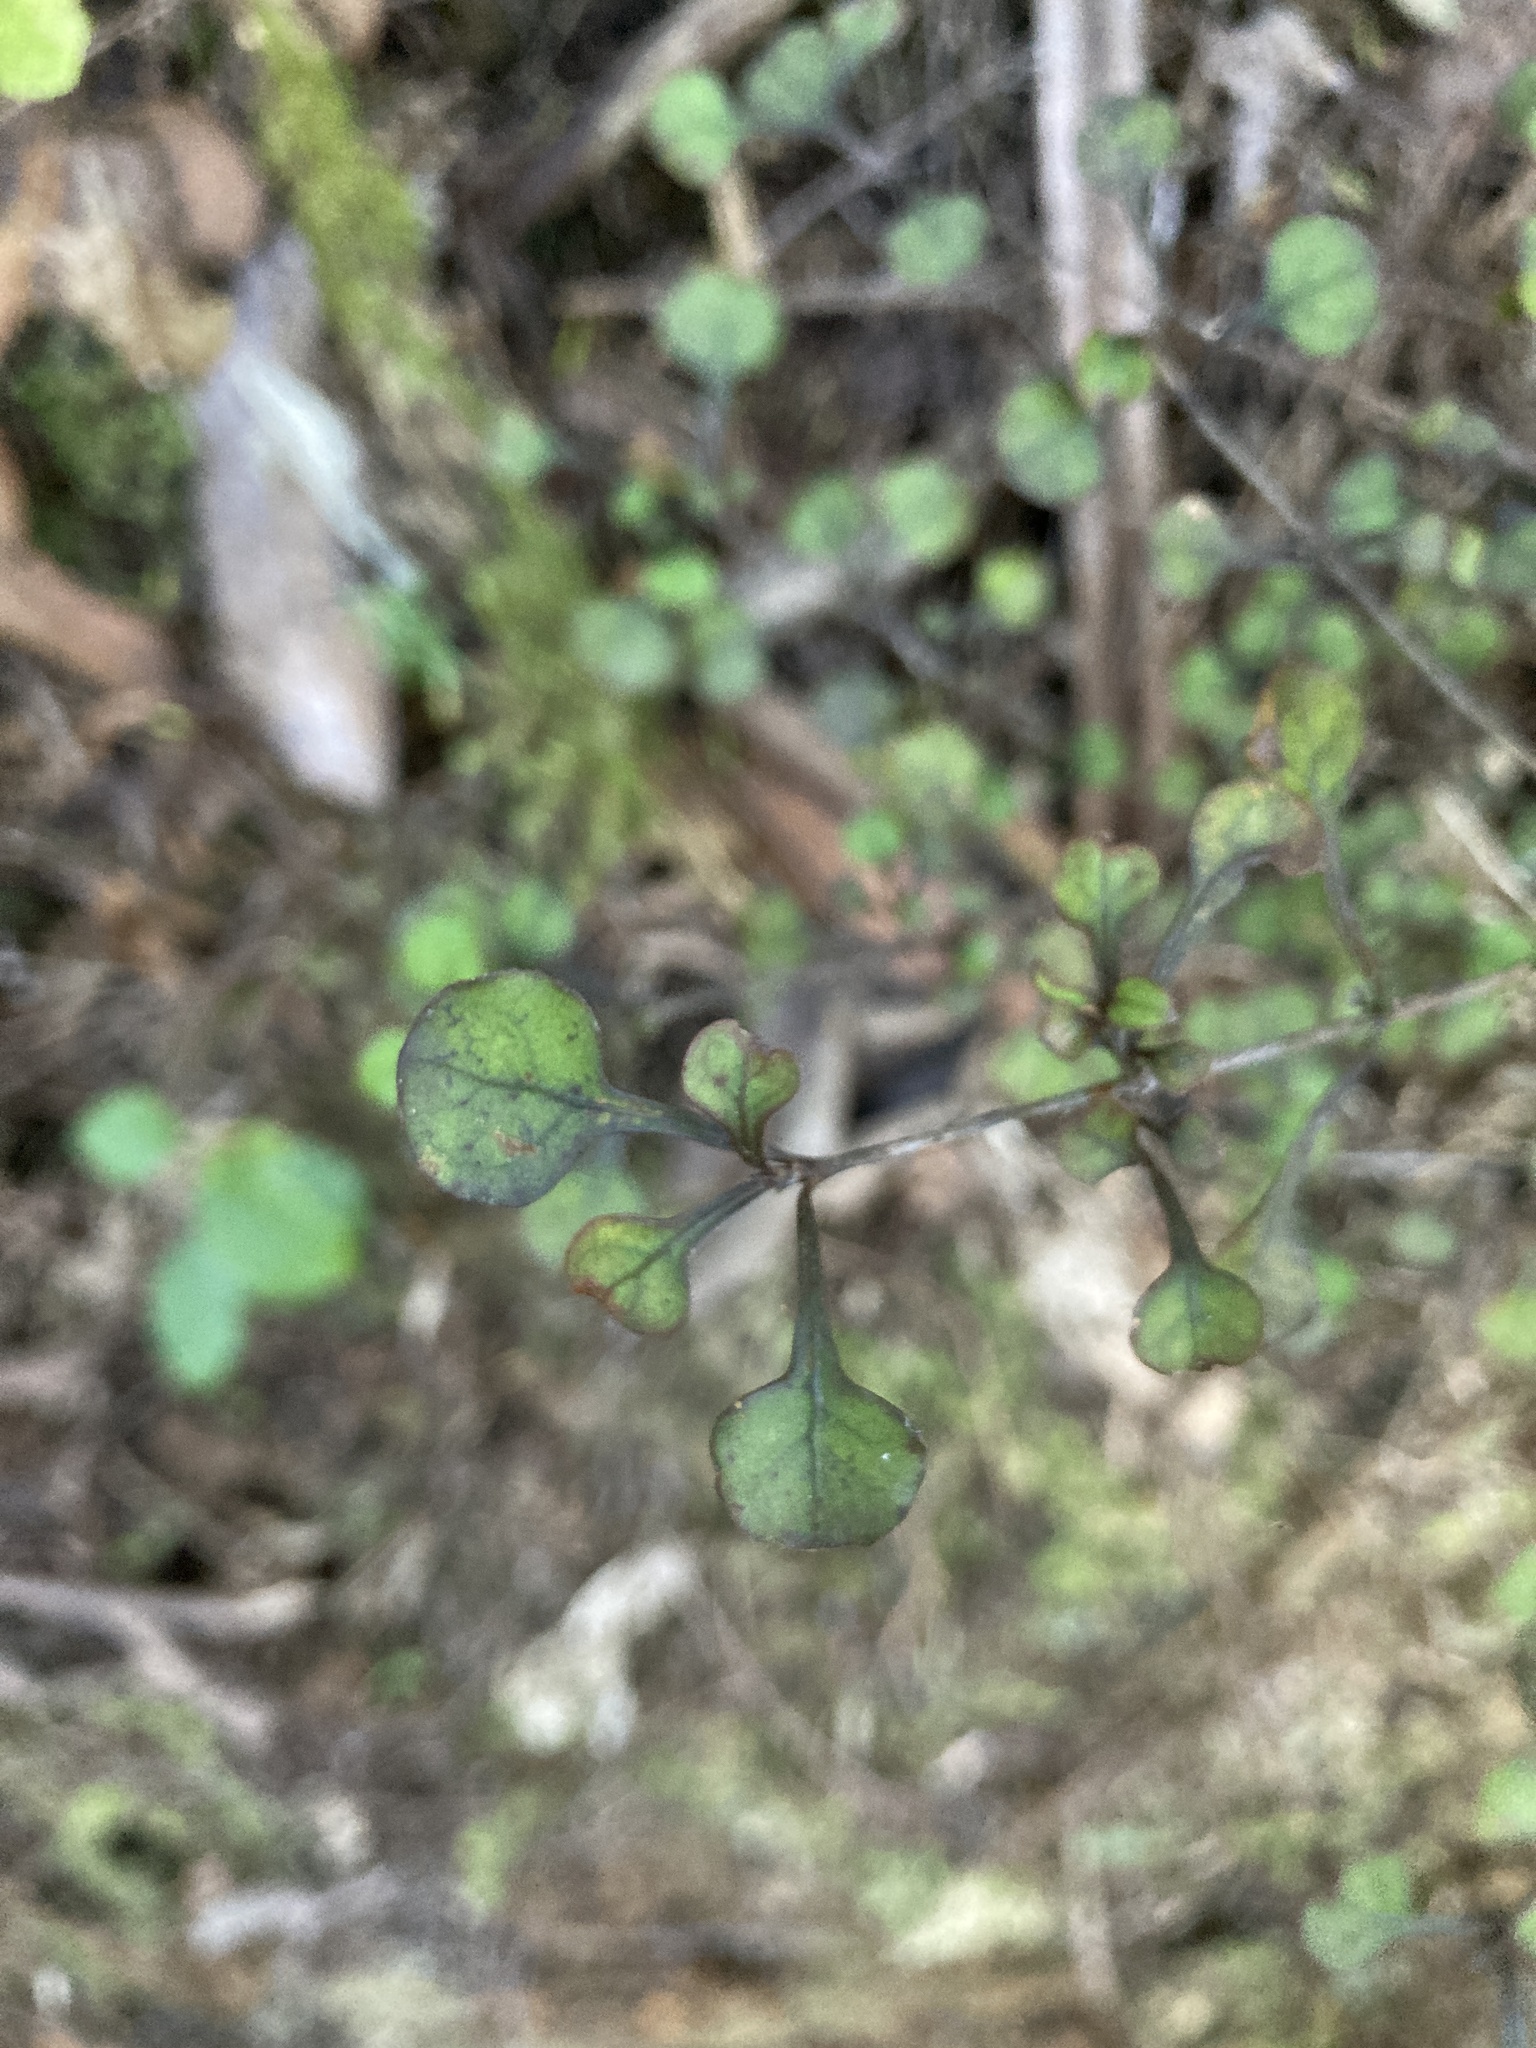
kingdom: Plantae
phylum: Tracheophyta
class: Magnoliopsida
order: Gentianales
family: Rubiaceae
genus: Coprosma
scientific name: Coprosma arborea
